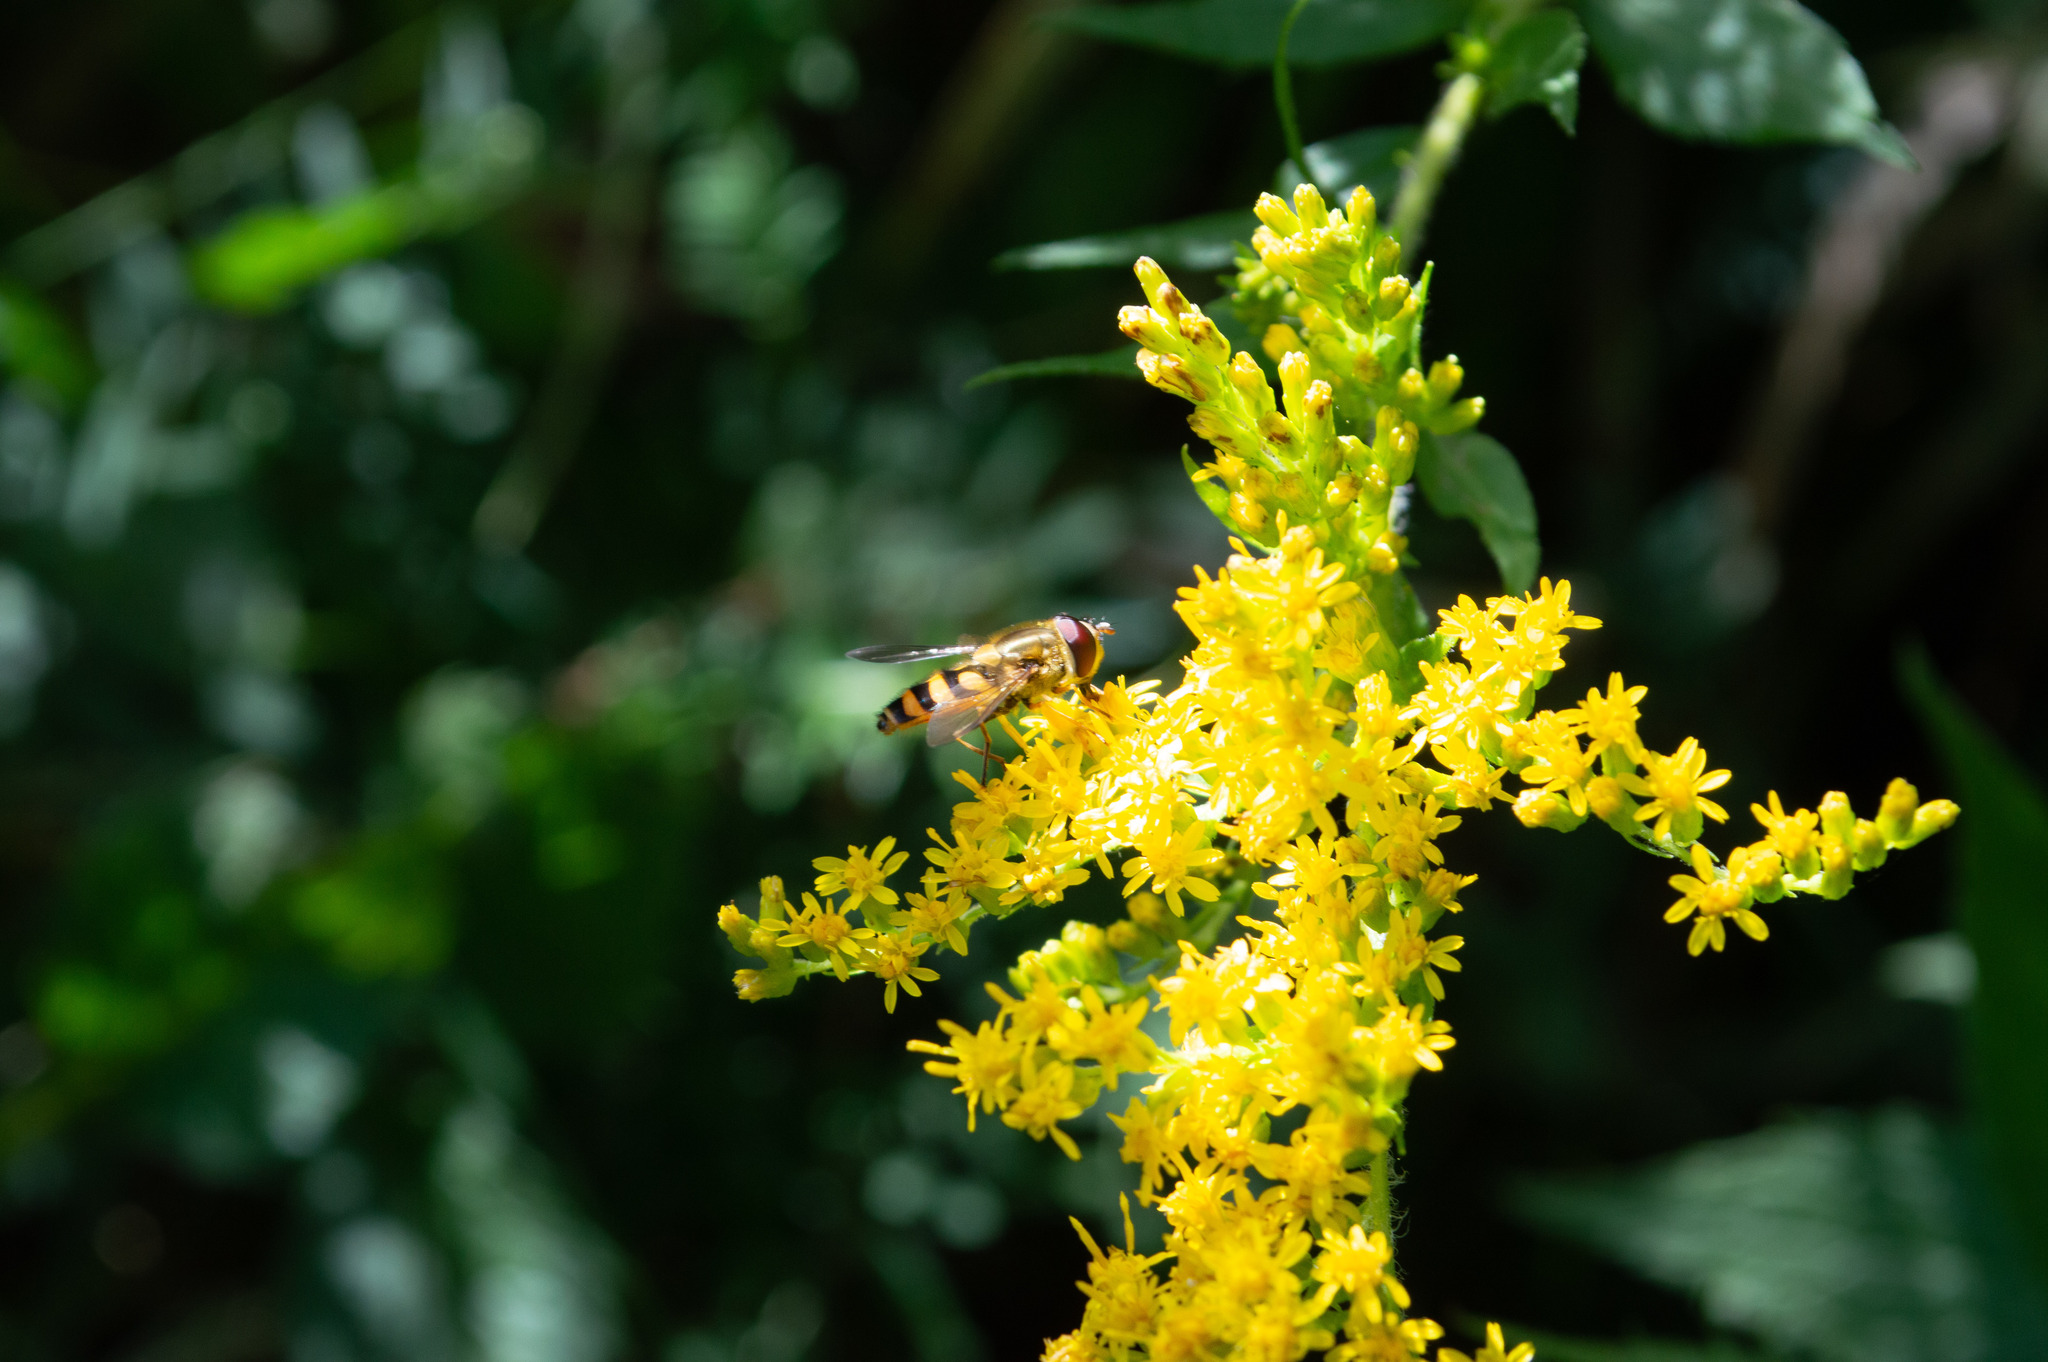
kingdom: Animalia
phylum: Arthropoda
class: Insecta
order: Diptera
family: Syrphidae
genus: Syrphus
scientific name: Syrphus
